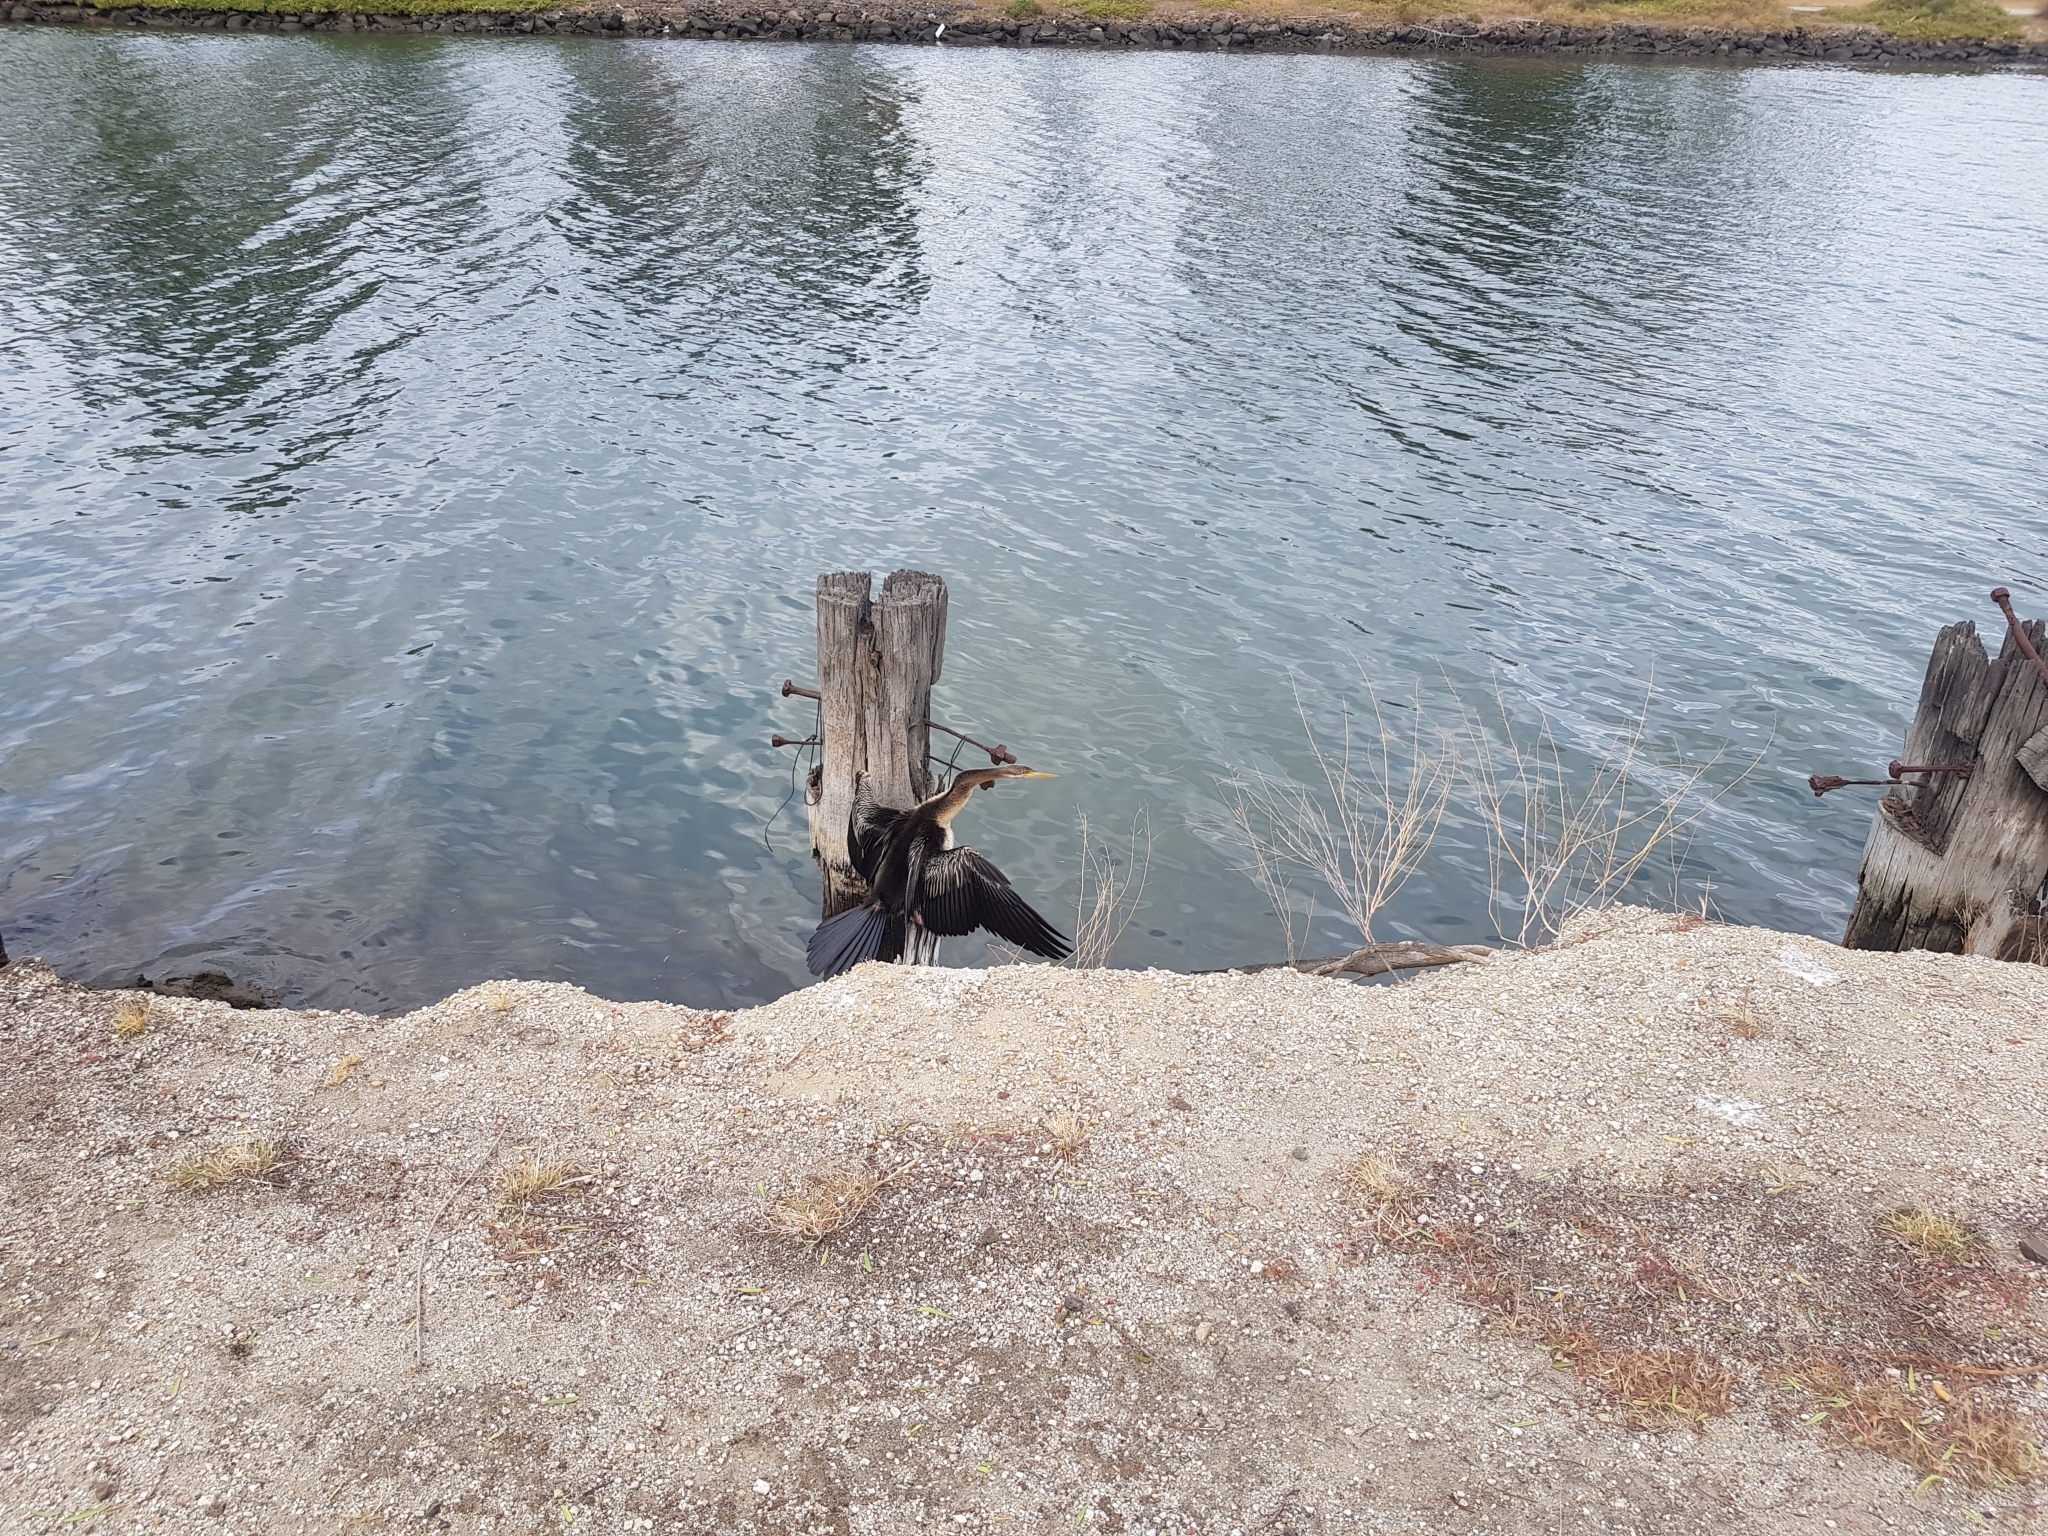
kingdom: Animalia
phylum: Chordata
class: Aves
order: Suliformes
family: Anhingidae
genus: Anhinga
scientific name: Anhinga novaehollandiae
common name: Australasian darter
